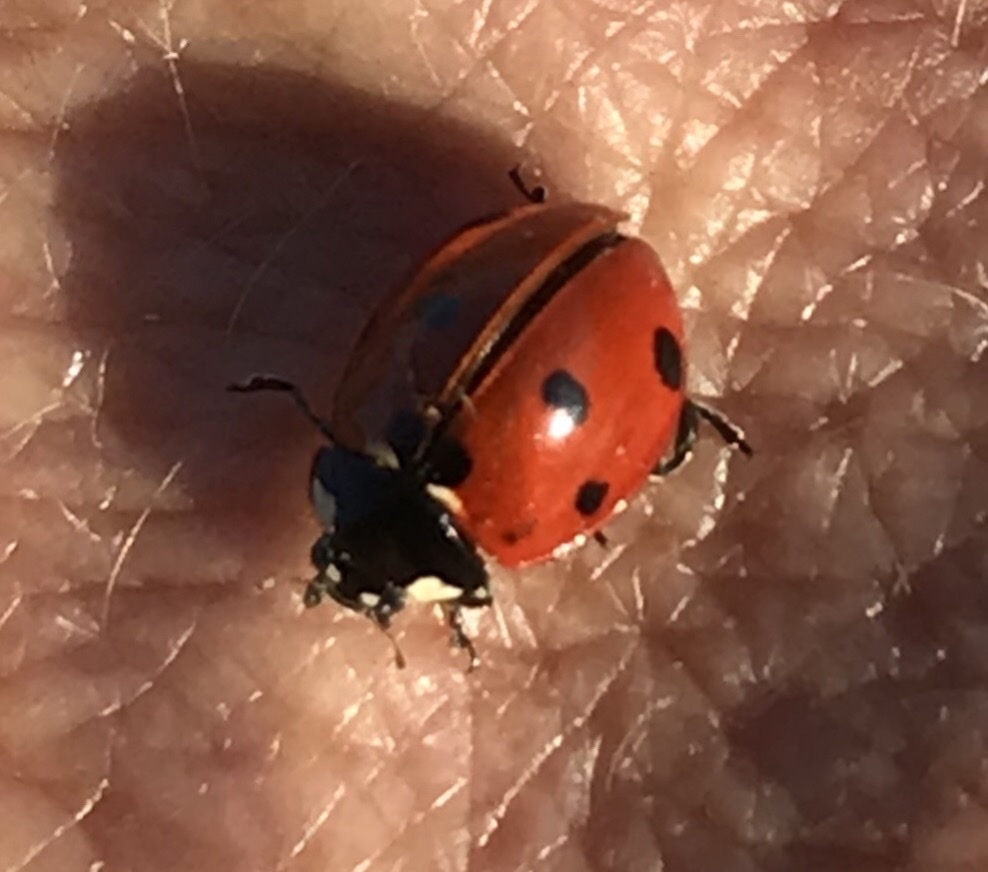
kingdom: Animalia
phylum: Arthropoda
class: Insecta
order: Coleoptera
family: Coccinellidae
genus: Coccinella
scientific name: Coccinella septempunctata
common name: Sevenspotted lady beetle
